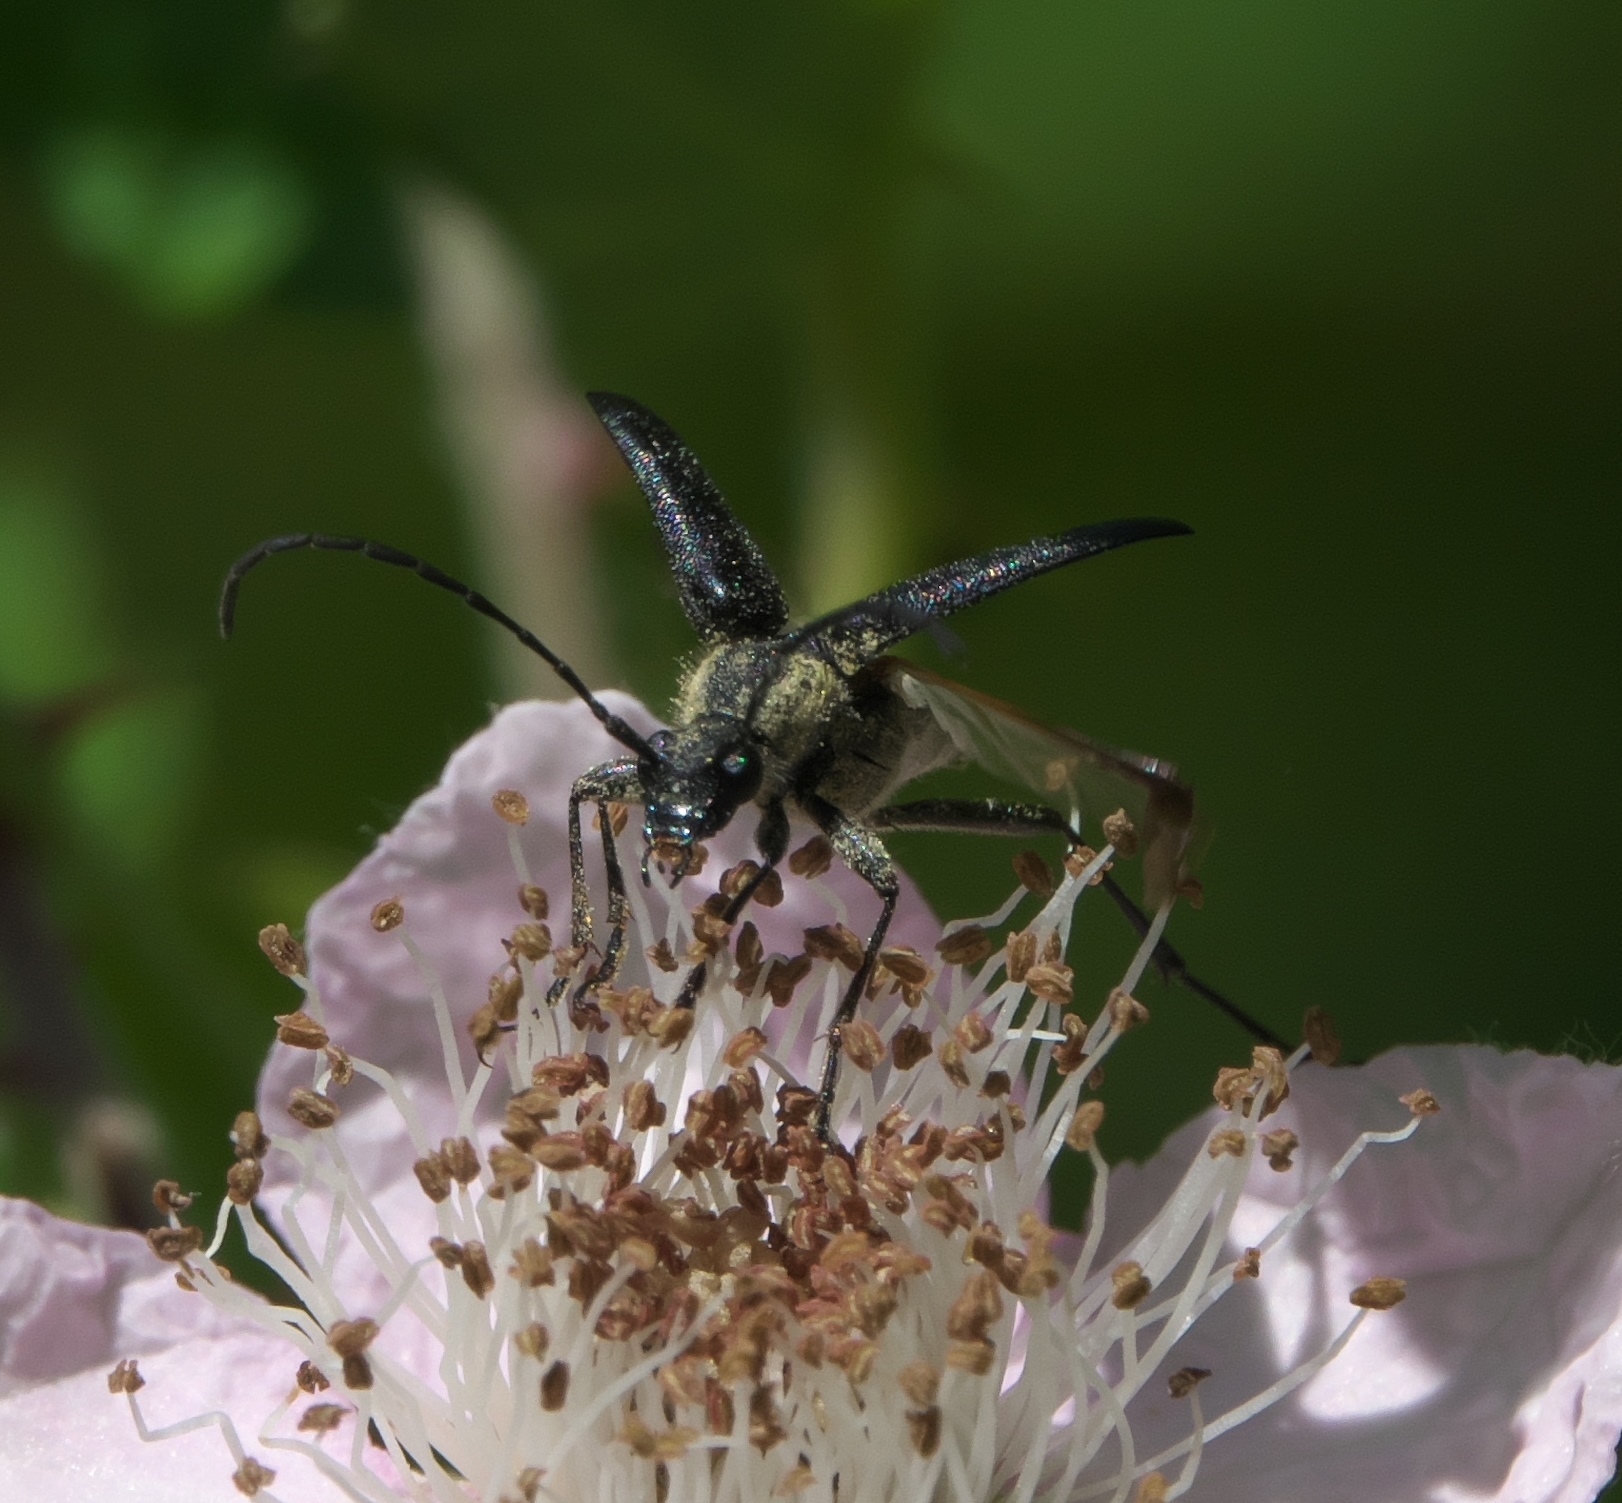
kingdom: Animalia
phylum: Arthropoda
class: Insecta
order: Coleoptera
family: Cerambycidae
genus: Anastrangalia
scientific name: Anastrangalia laetifica
